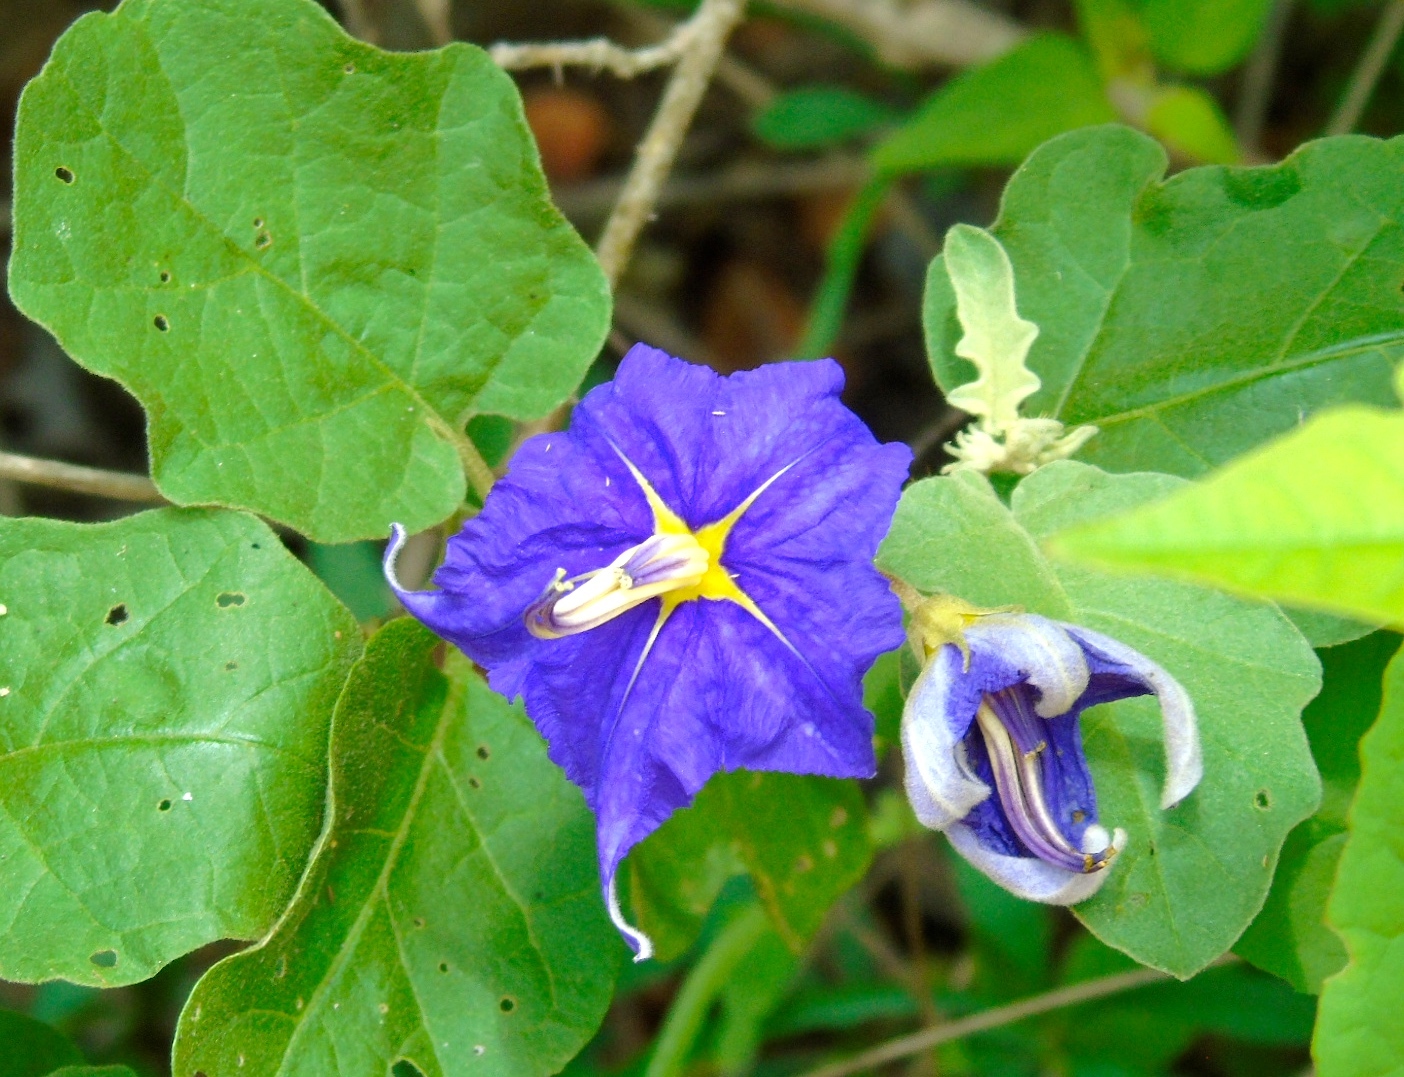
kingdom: Plantae
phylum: Tracheophyta
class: Magnoliopsida
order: Solanales
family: Solanaceae
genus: Solanum
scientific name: Solanum houstonii
